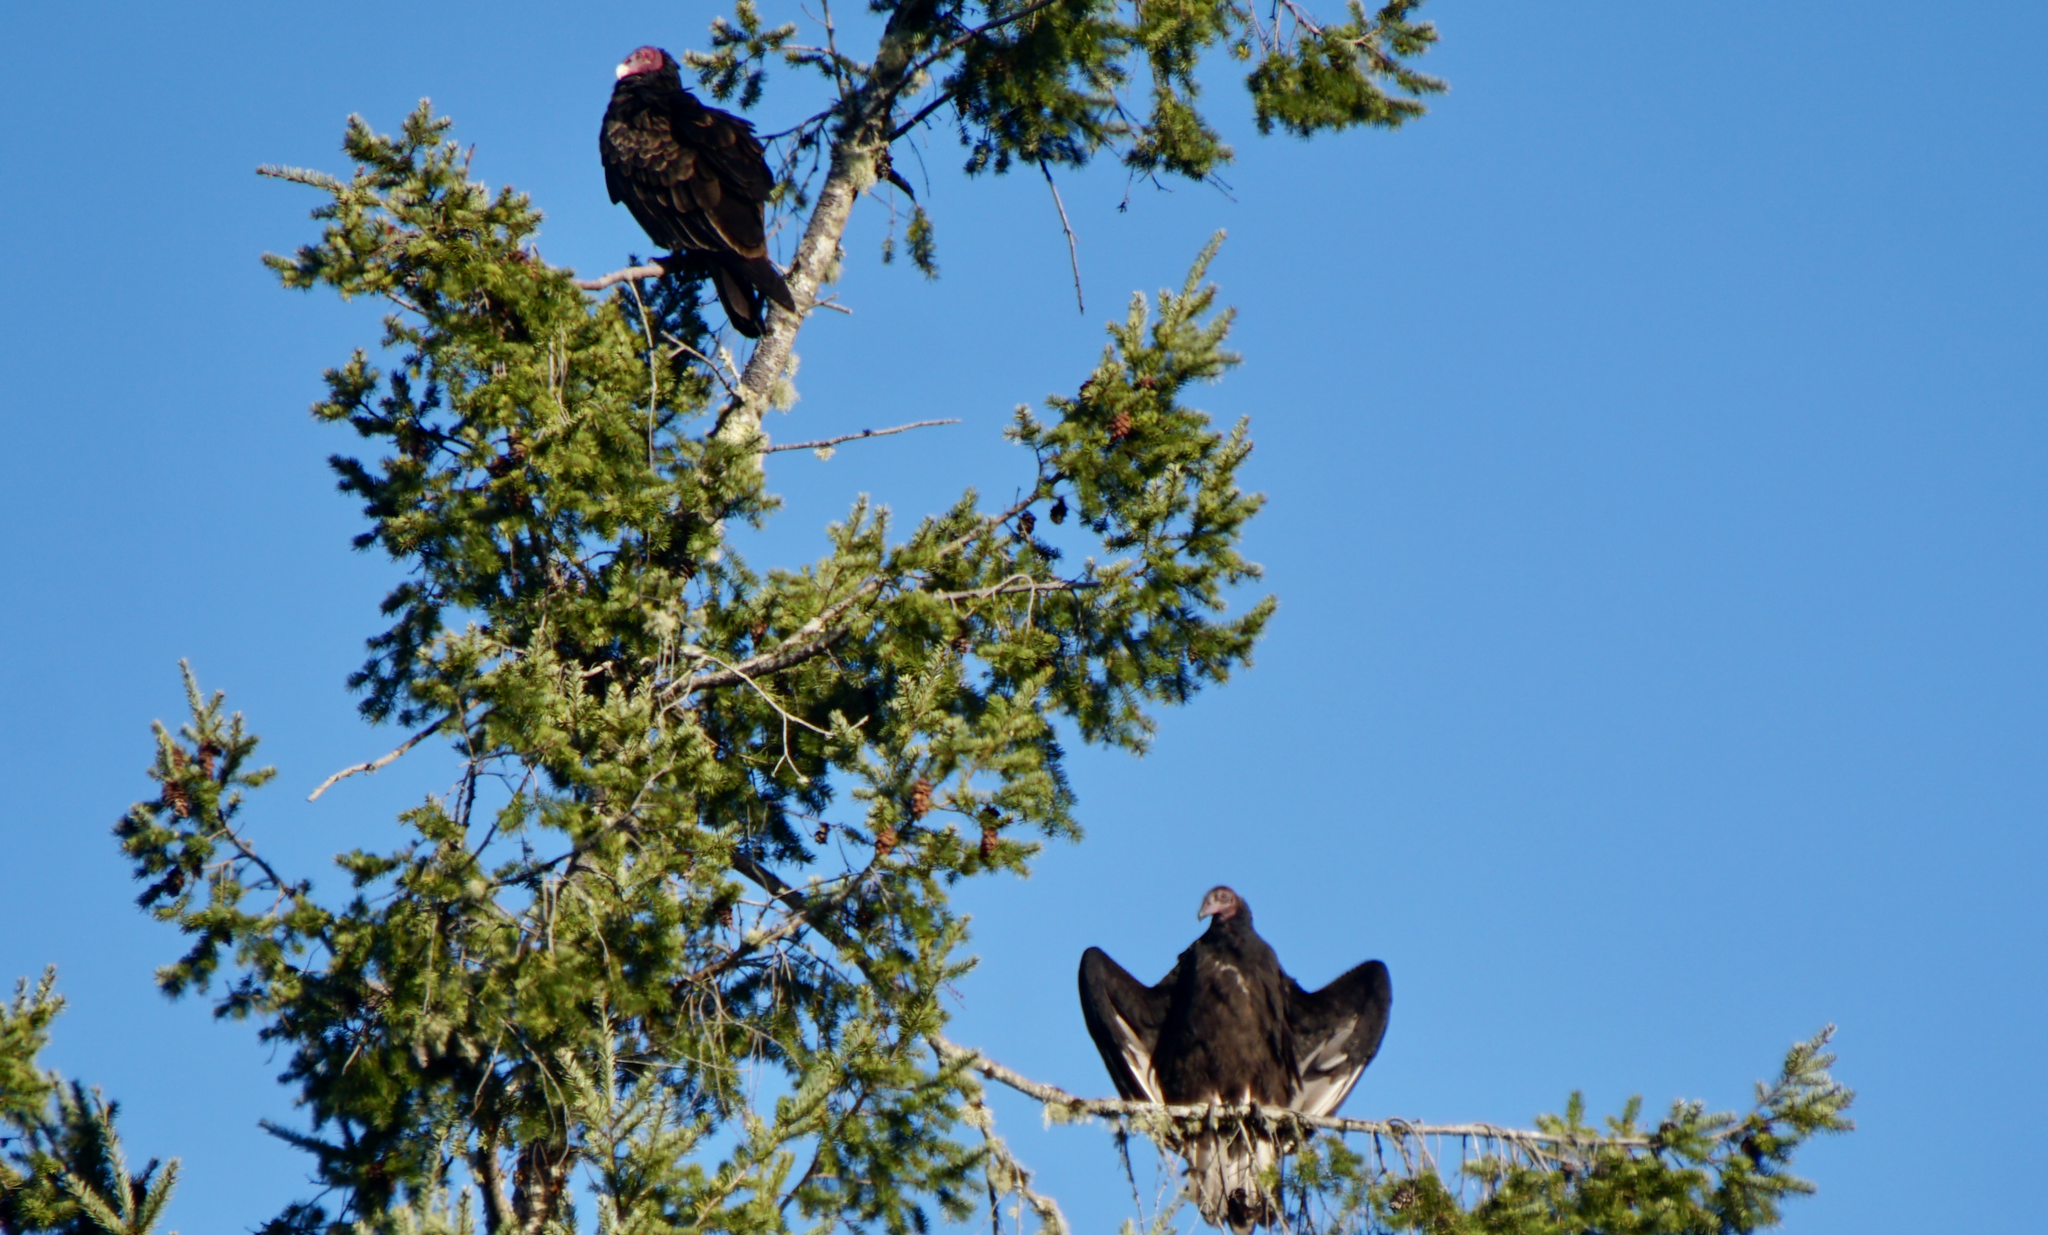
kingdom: Animalia
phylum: Chordata
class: Aves
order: Accipitriformes
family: Cathartidae
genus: Cathartes
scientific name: Cathartes aura
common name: Turkey vulture
